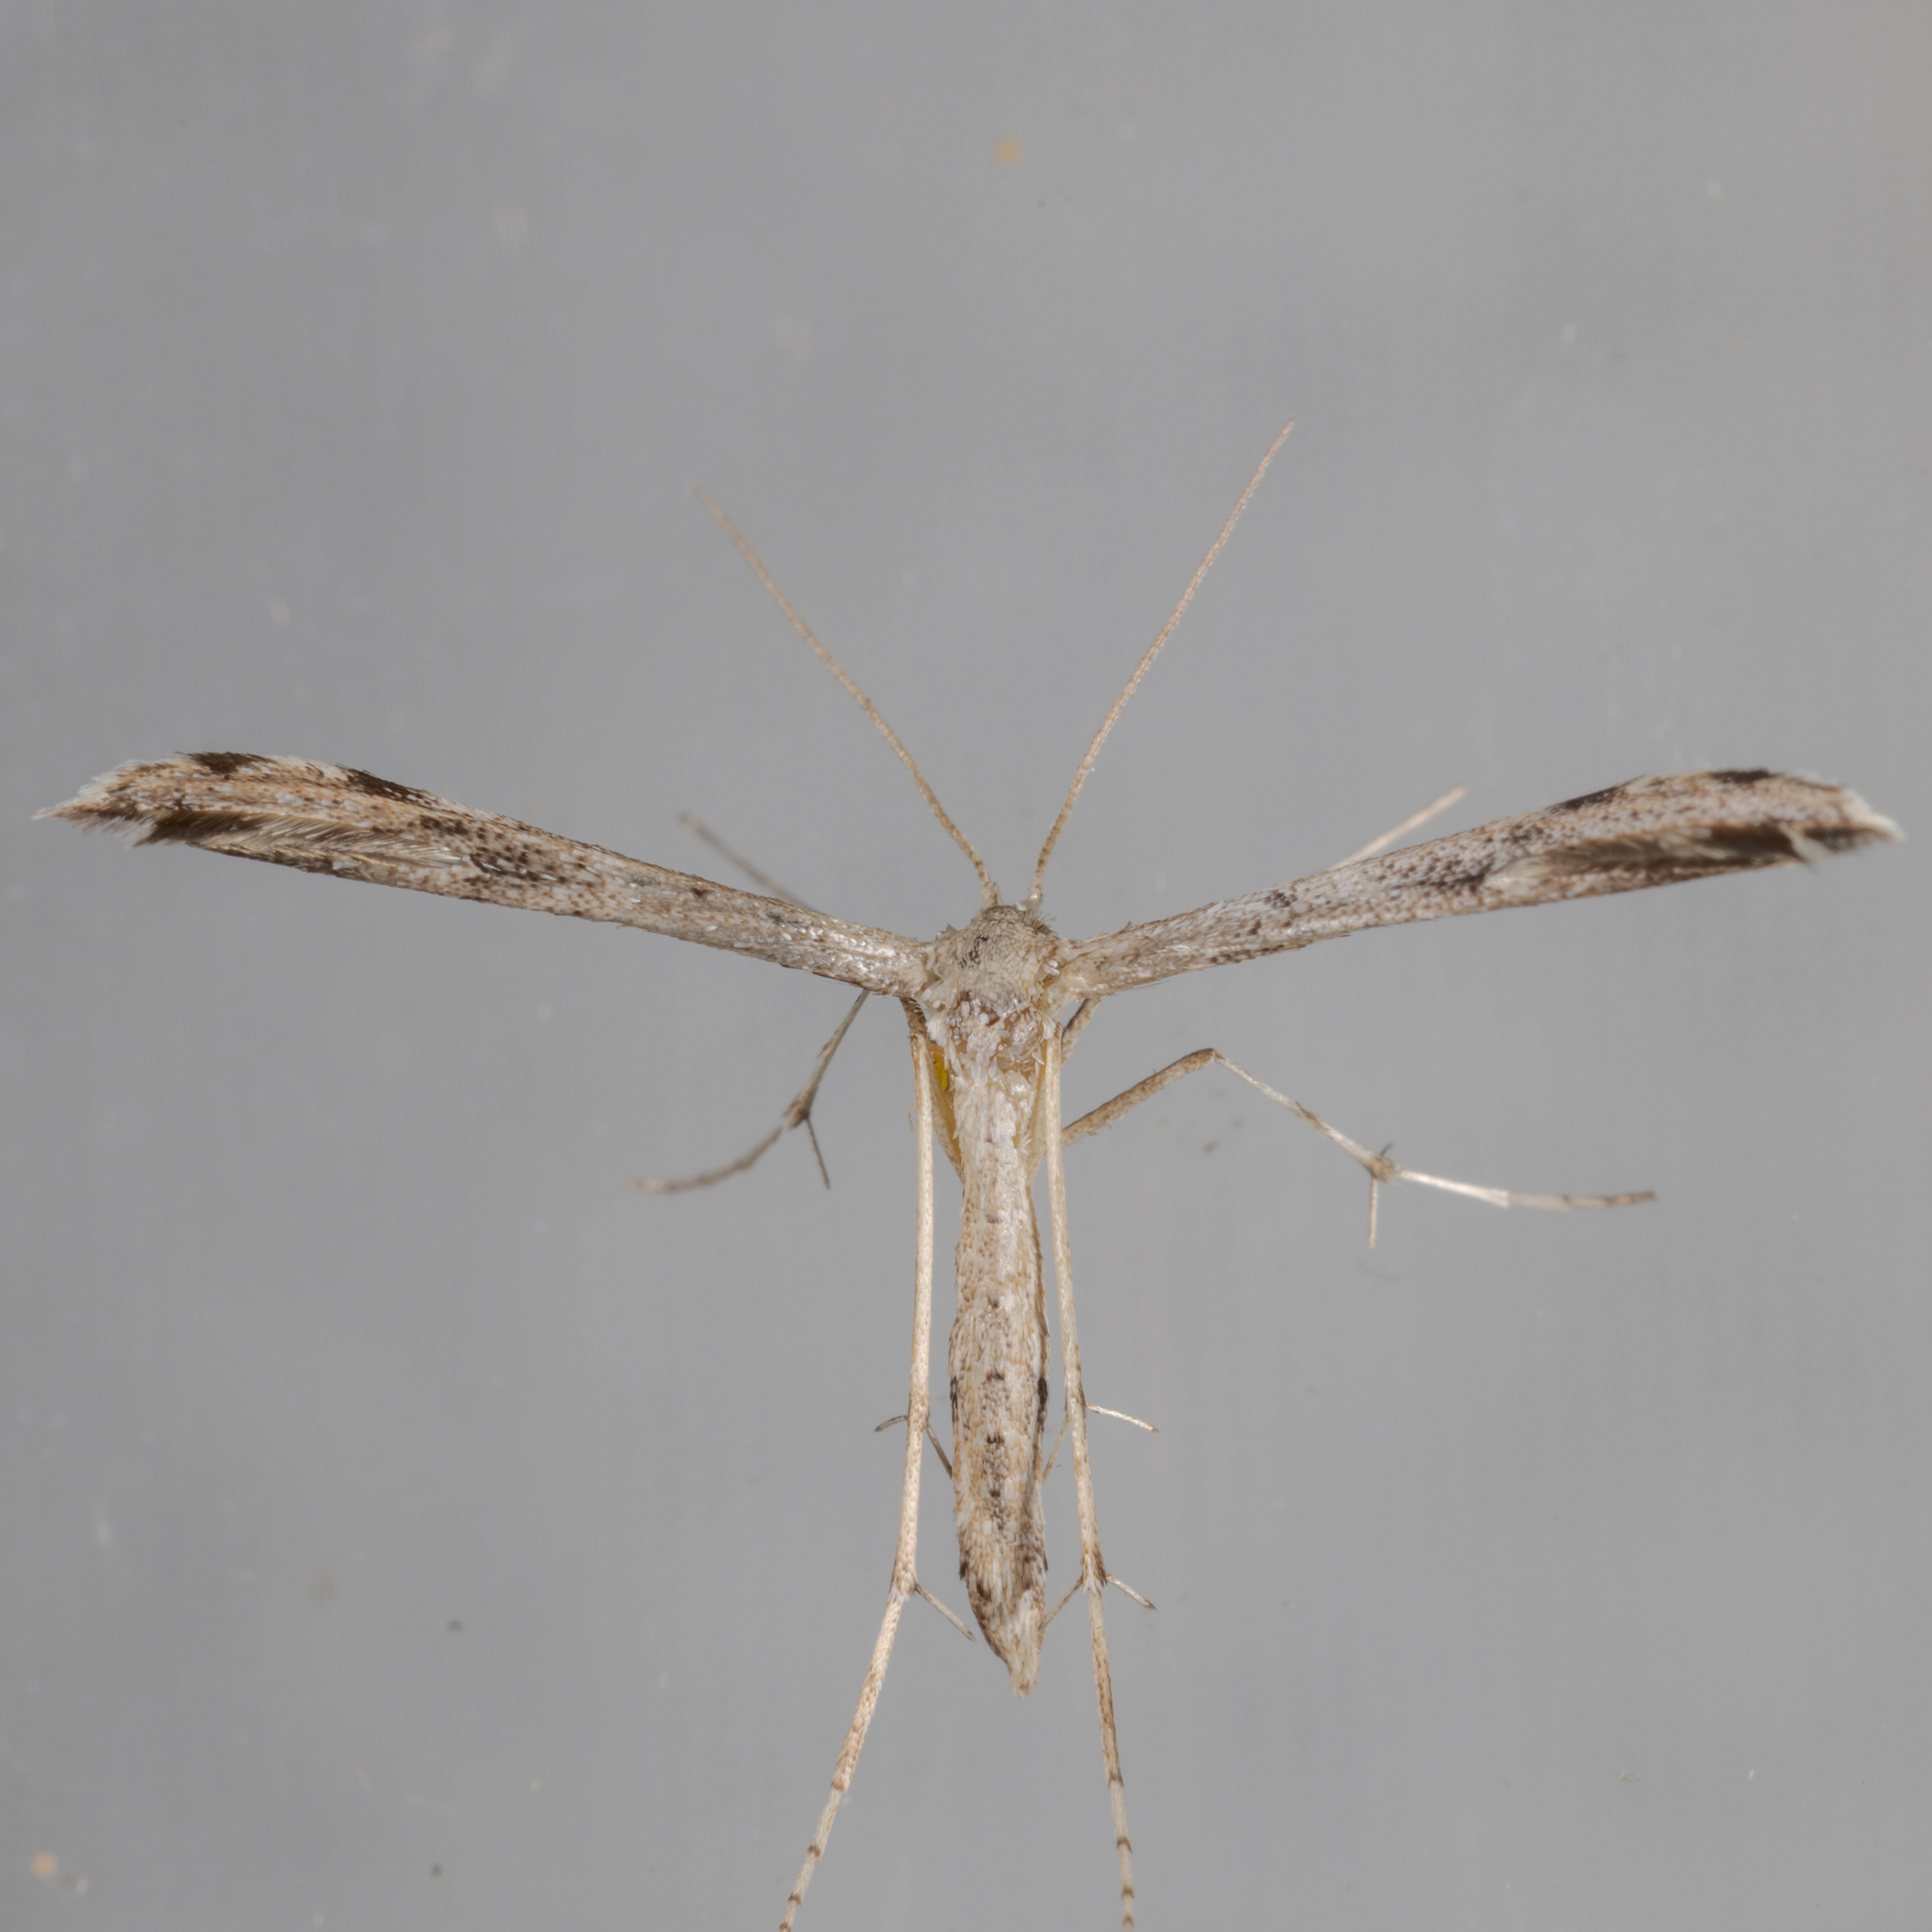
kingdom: Animalia
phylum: Arthropoda
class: Insecta
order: Lepidoptera
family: Pterophoridae
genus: Adaina
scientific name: Adaina ambrosiae
